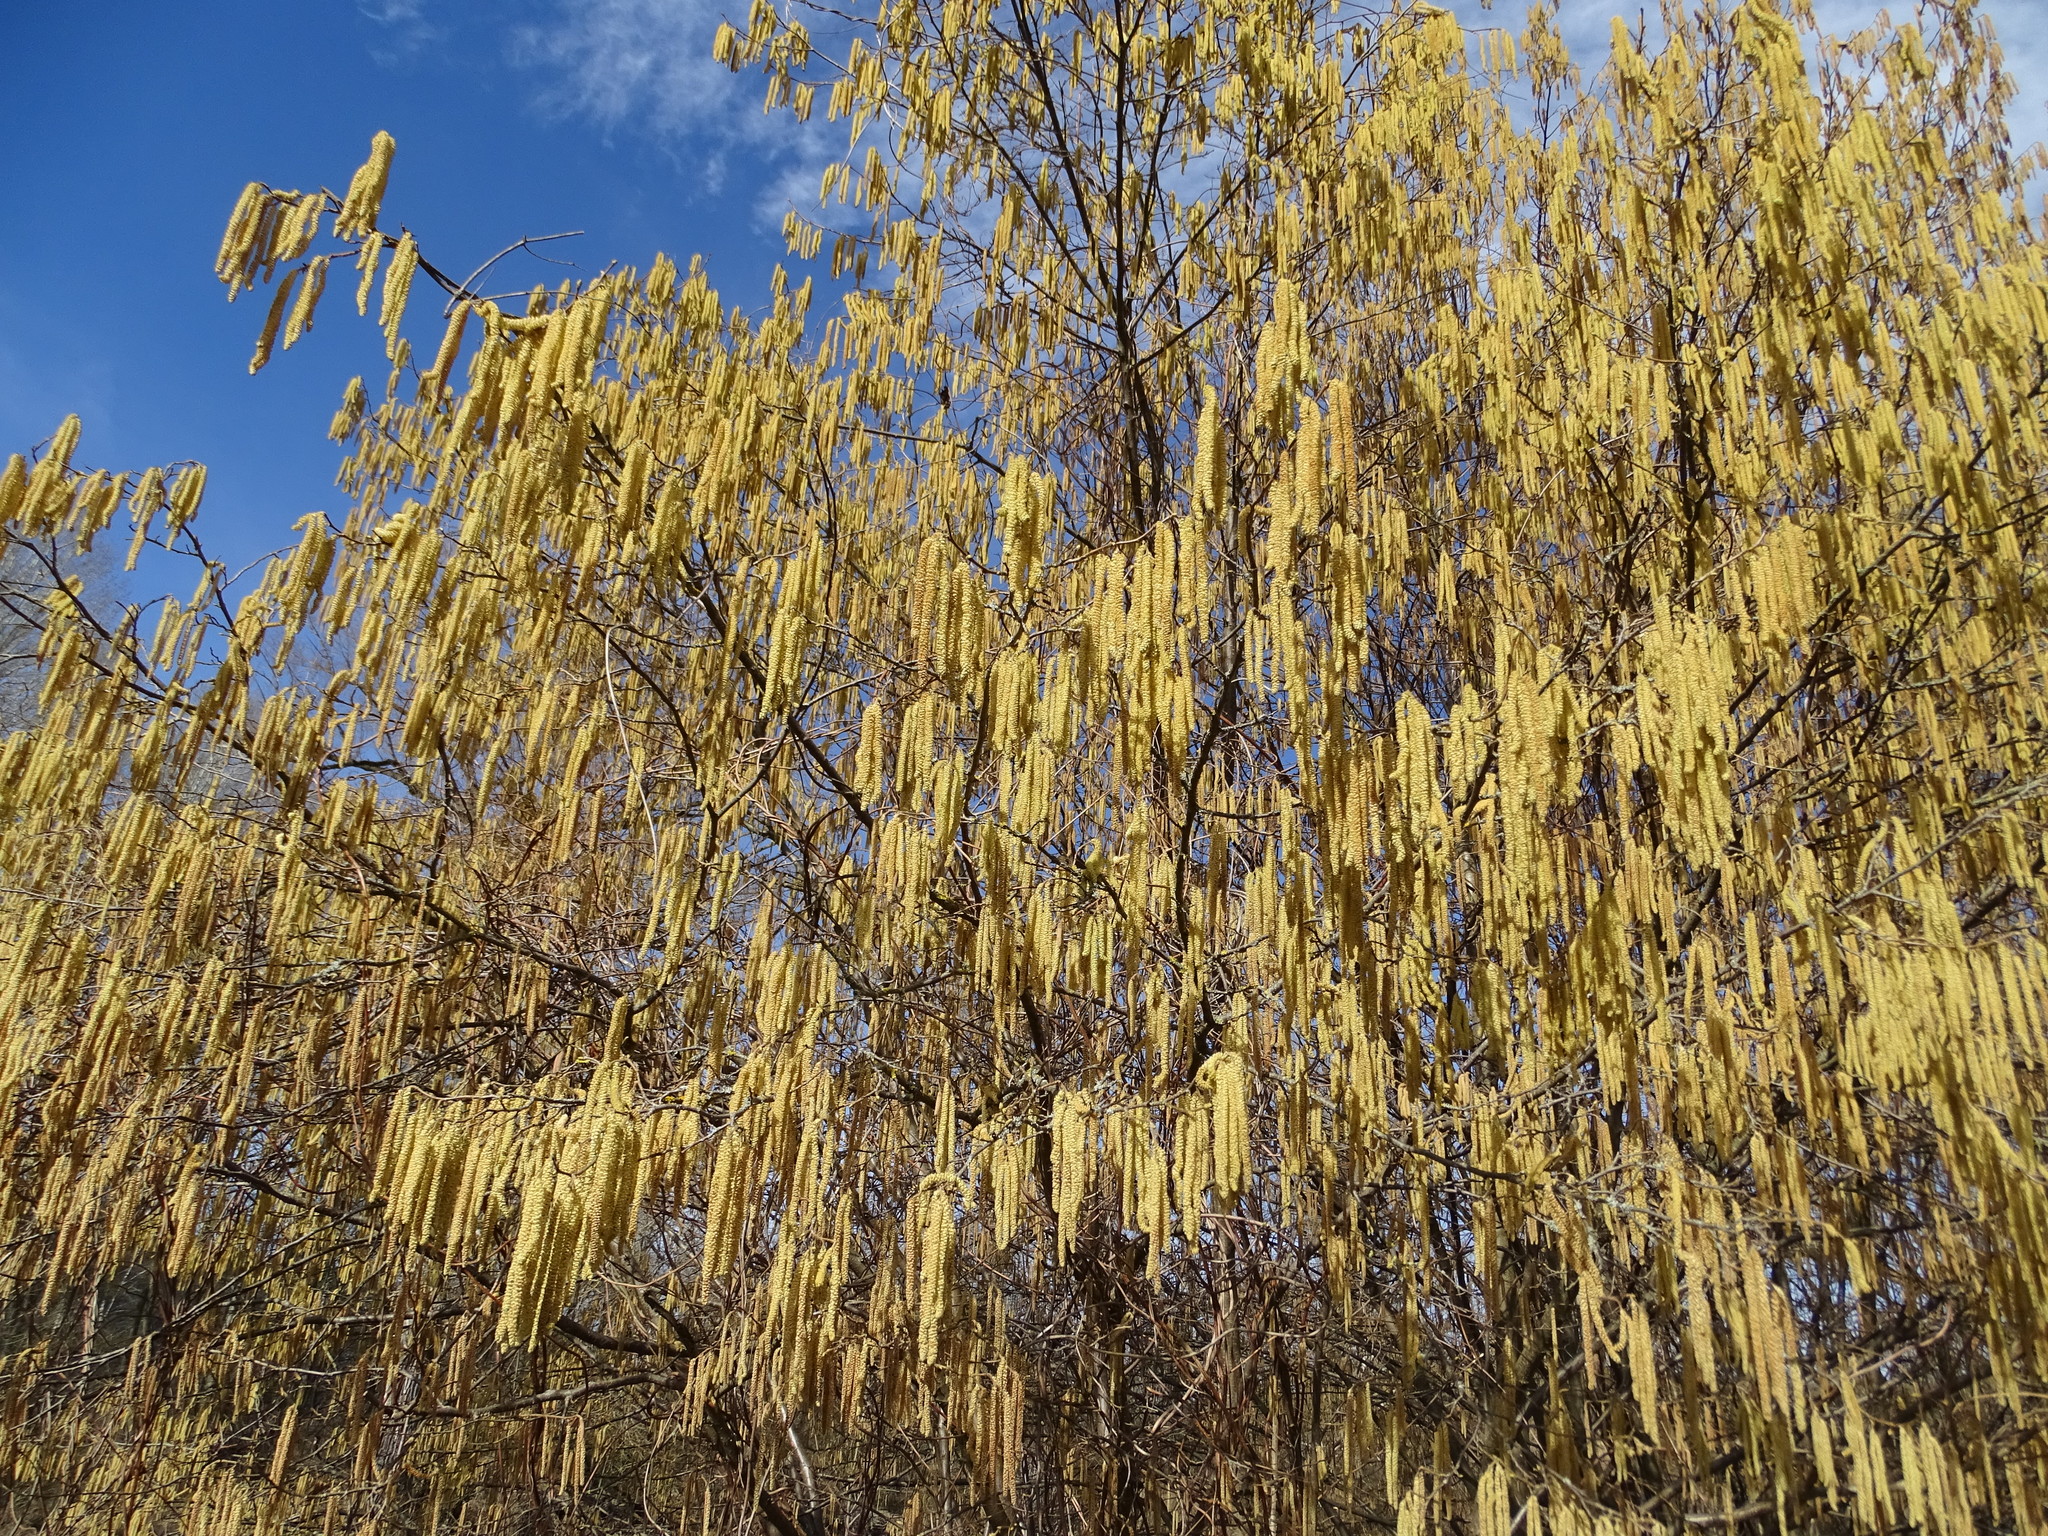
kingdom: Plantae
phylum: Tracheophyta
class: Magnoliopsida
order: Fagales
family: Betulaceae
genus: Corylus
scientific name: Corylus avellana
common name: European hazel
